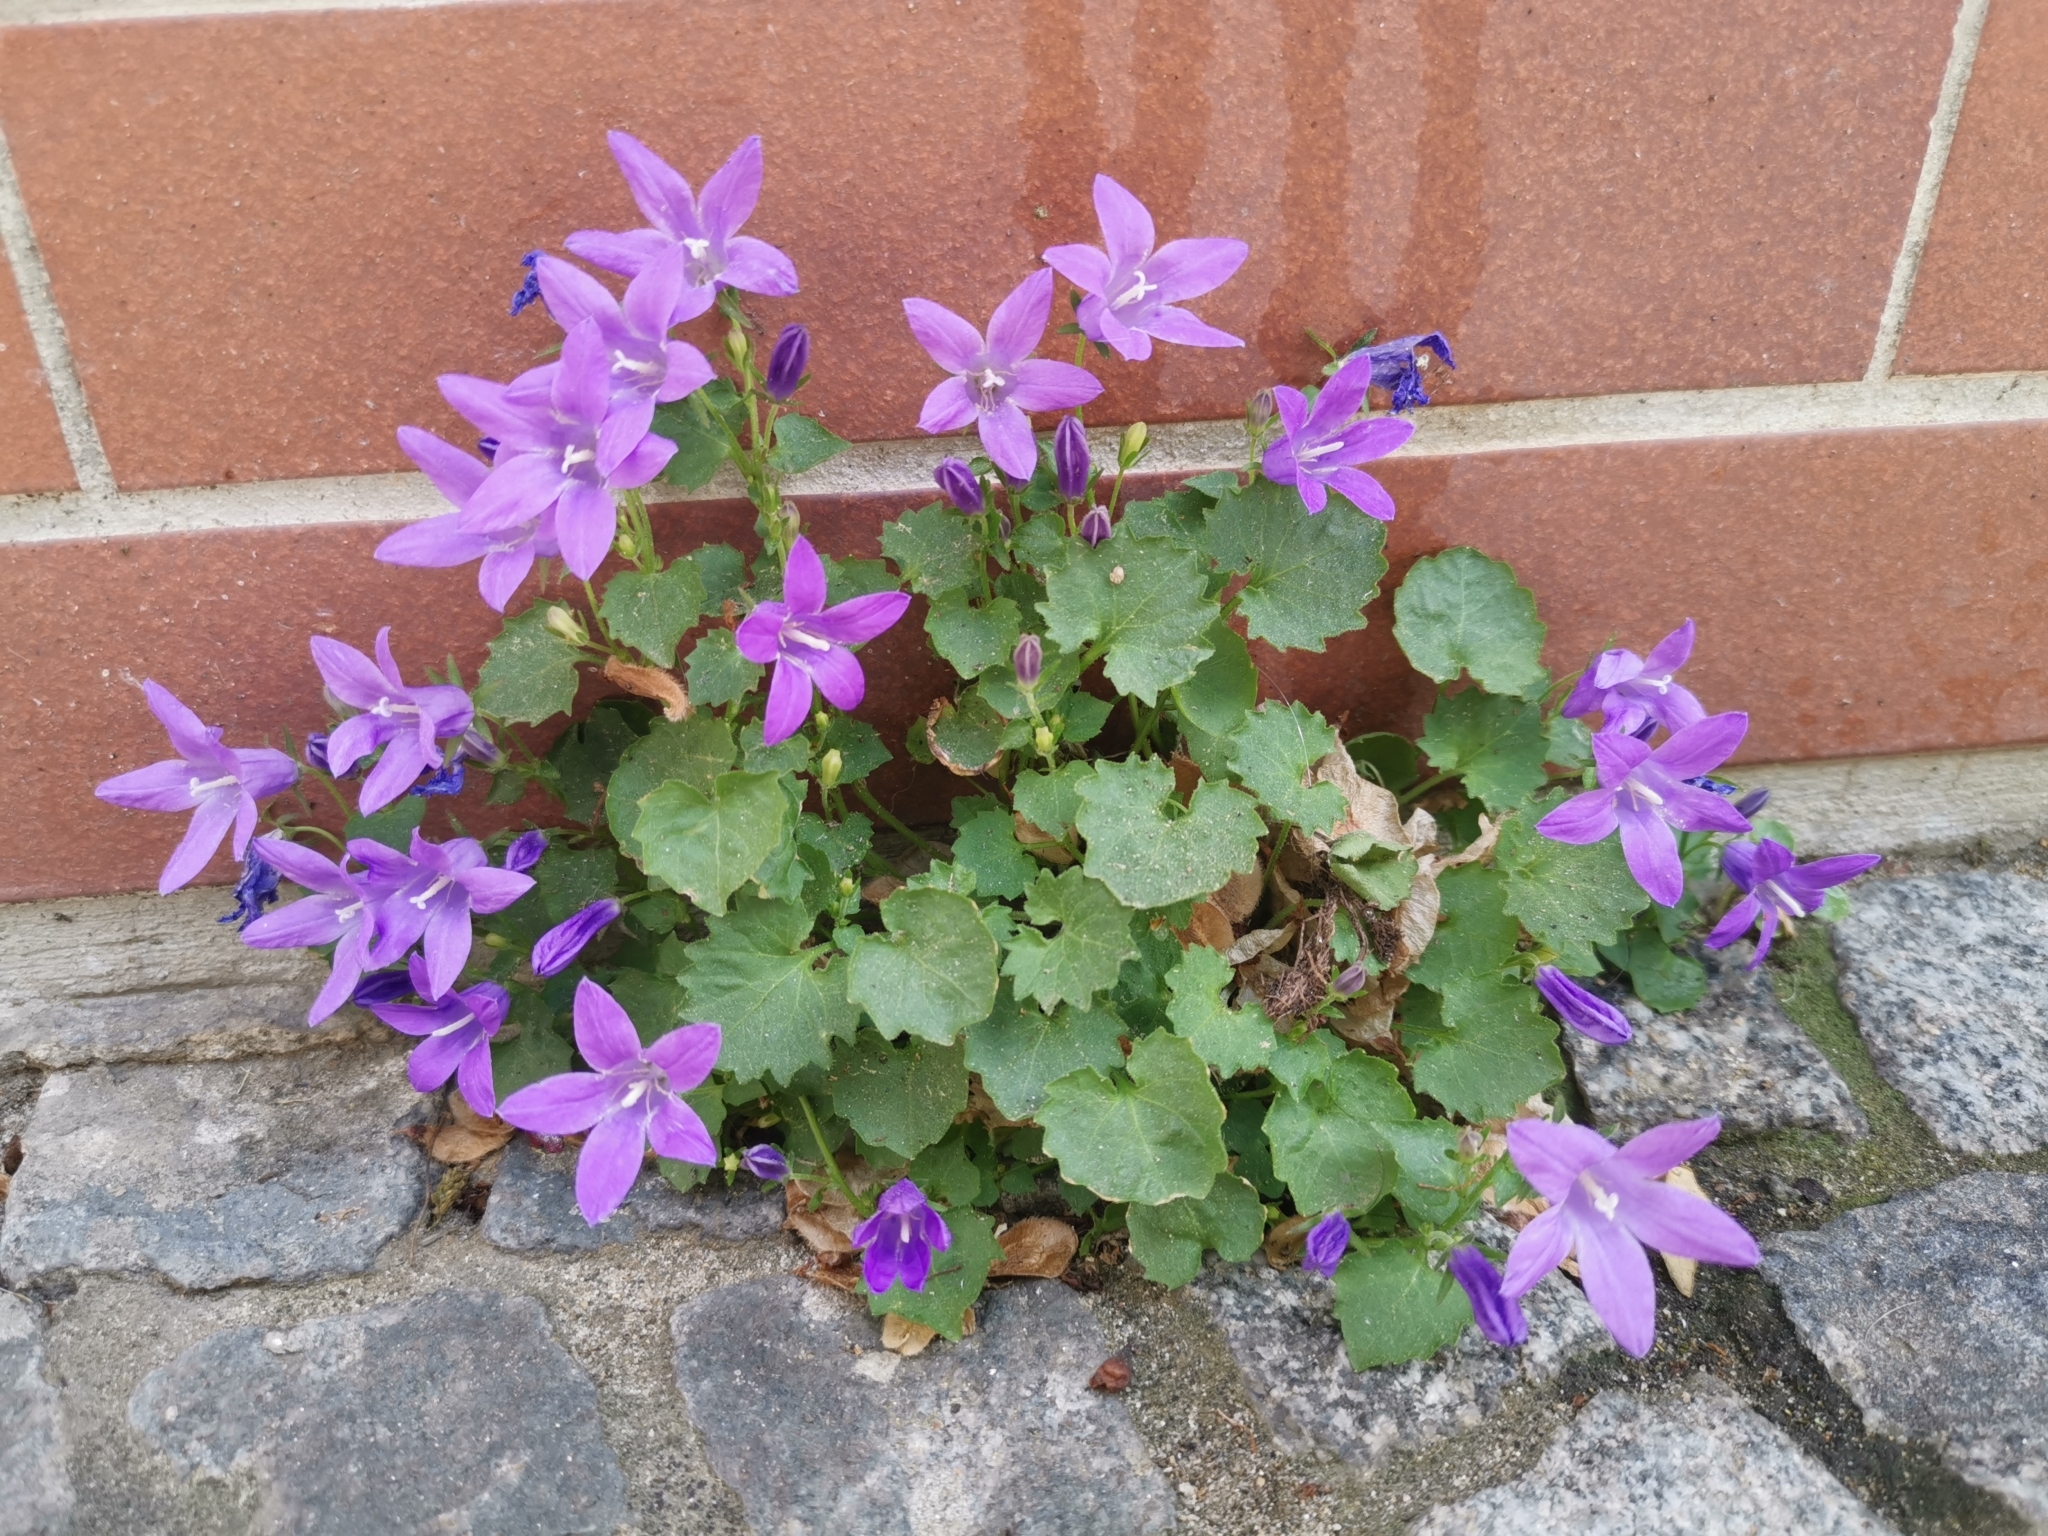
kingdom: Plantae
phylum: Tracheophyta
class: Magnoliopsida
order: Asterales
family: Campanulaceae
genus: Campanula
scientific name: Campanula poscharskyana
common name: Trailing bellflower
